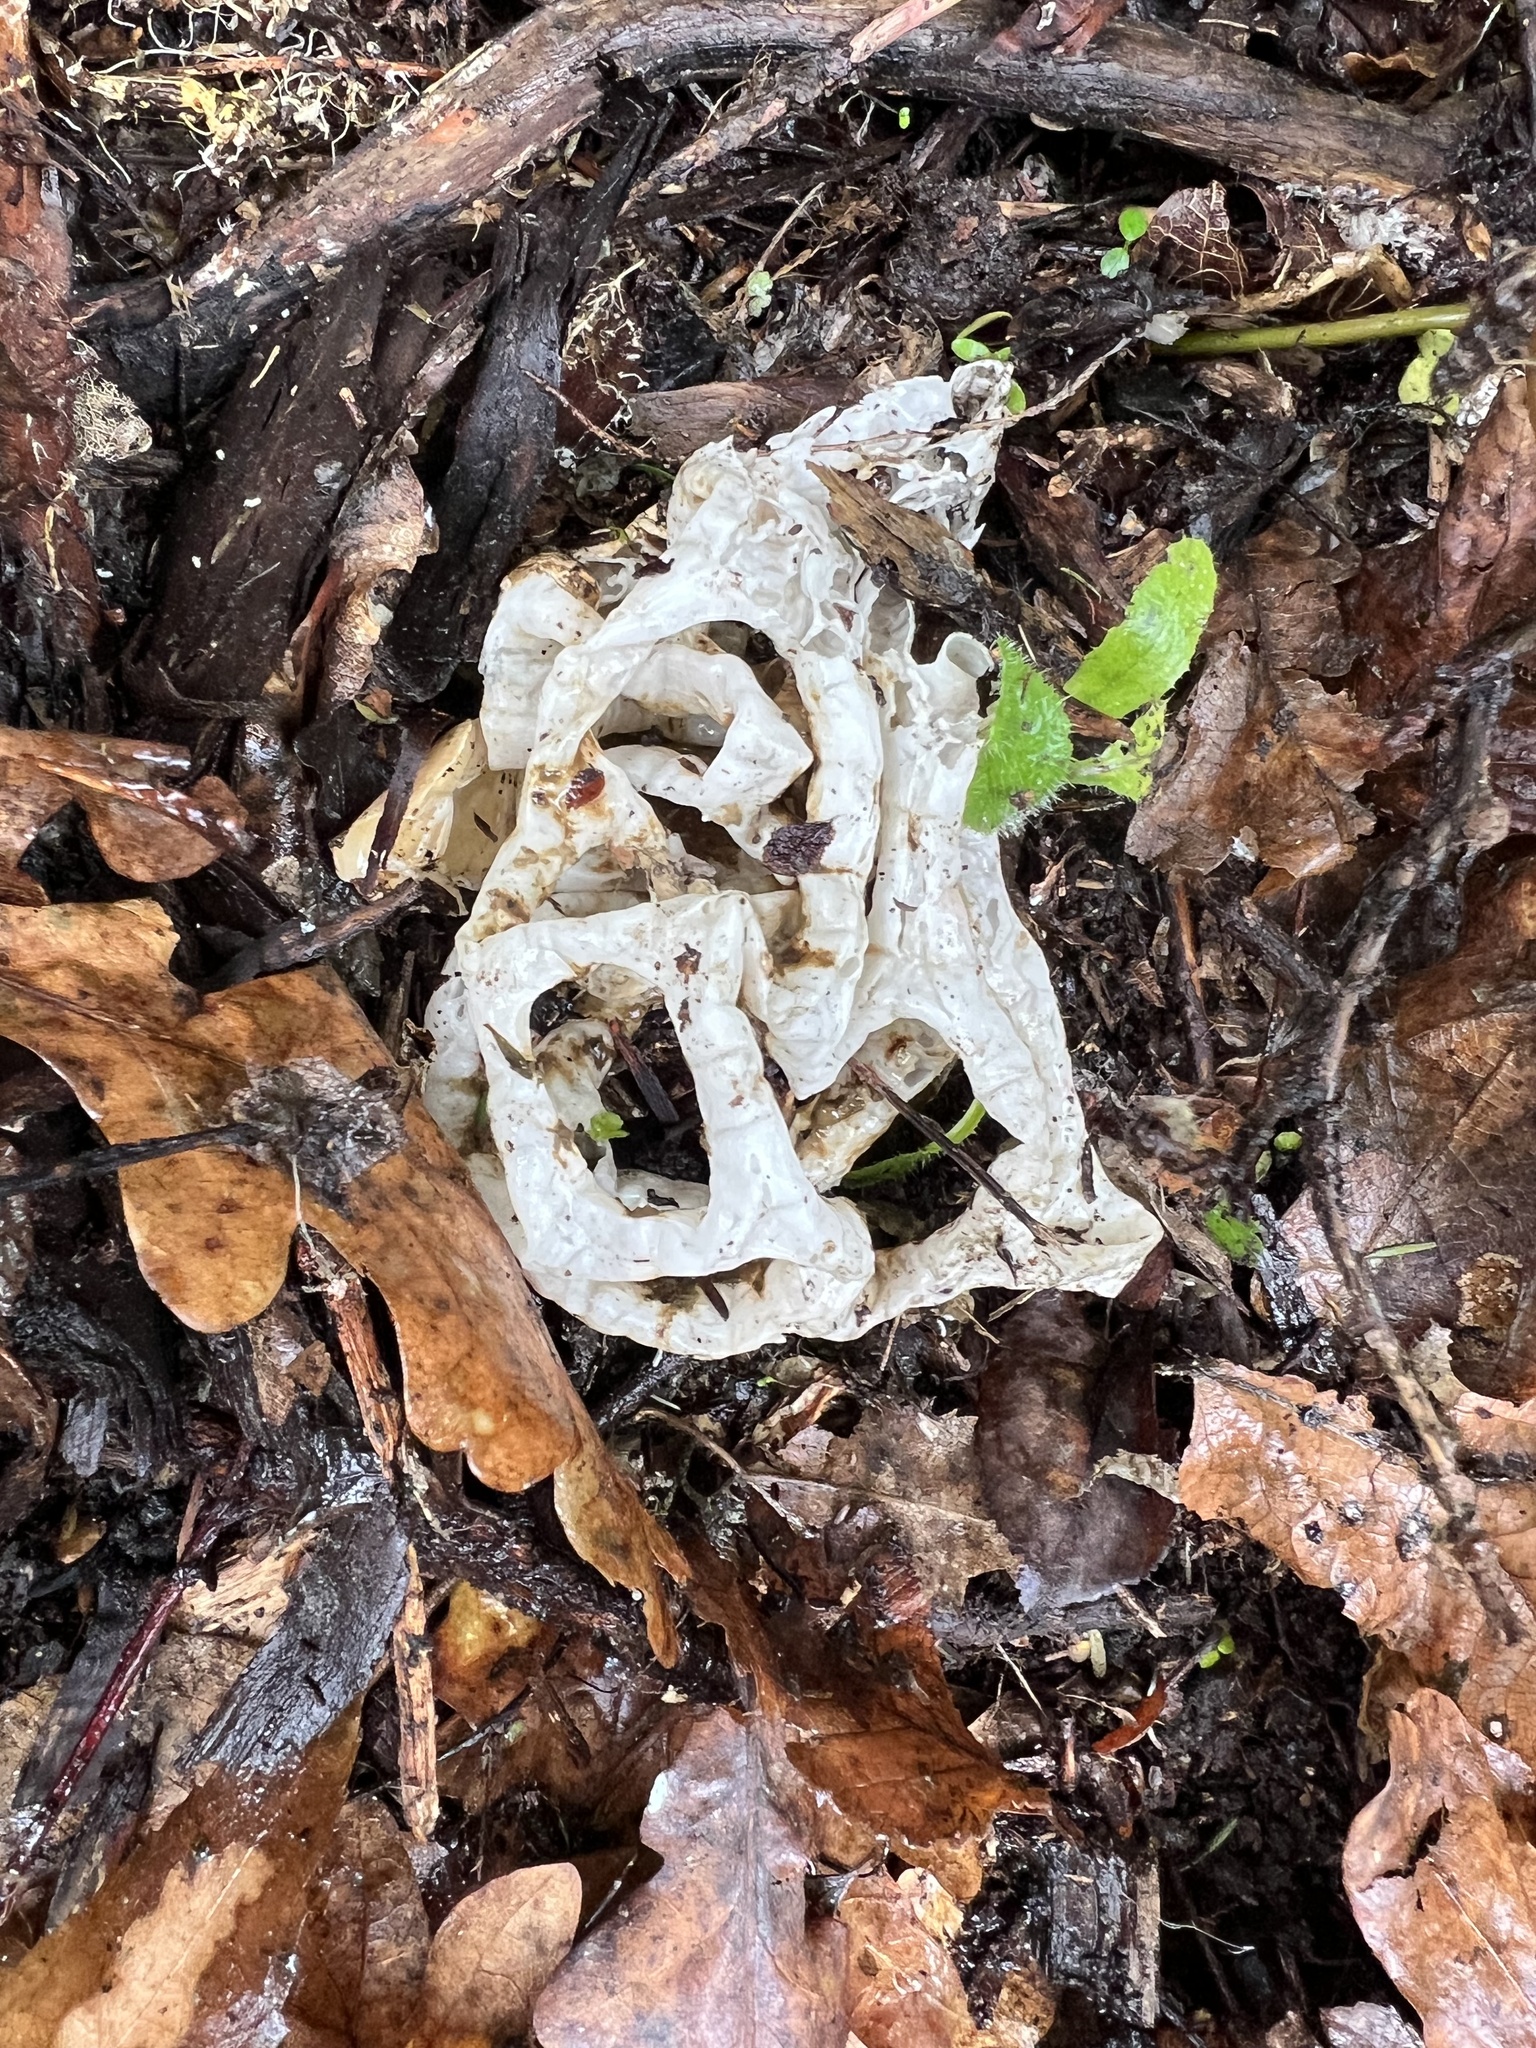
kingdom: Fungi
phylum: Basidiomycota
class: Agaricomycetes
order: Phallales
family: Phallaceae
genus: Ileodictyon
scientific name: Ileodictyon cibarium
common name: Basket fungus
